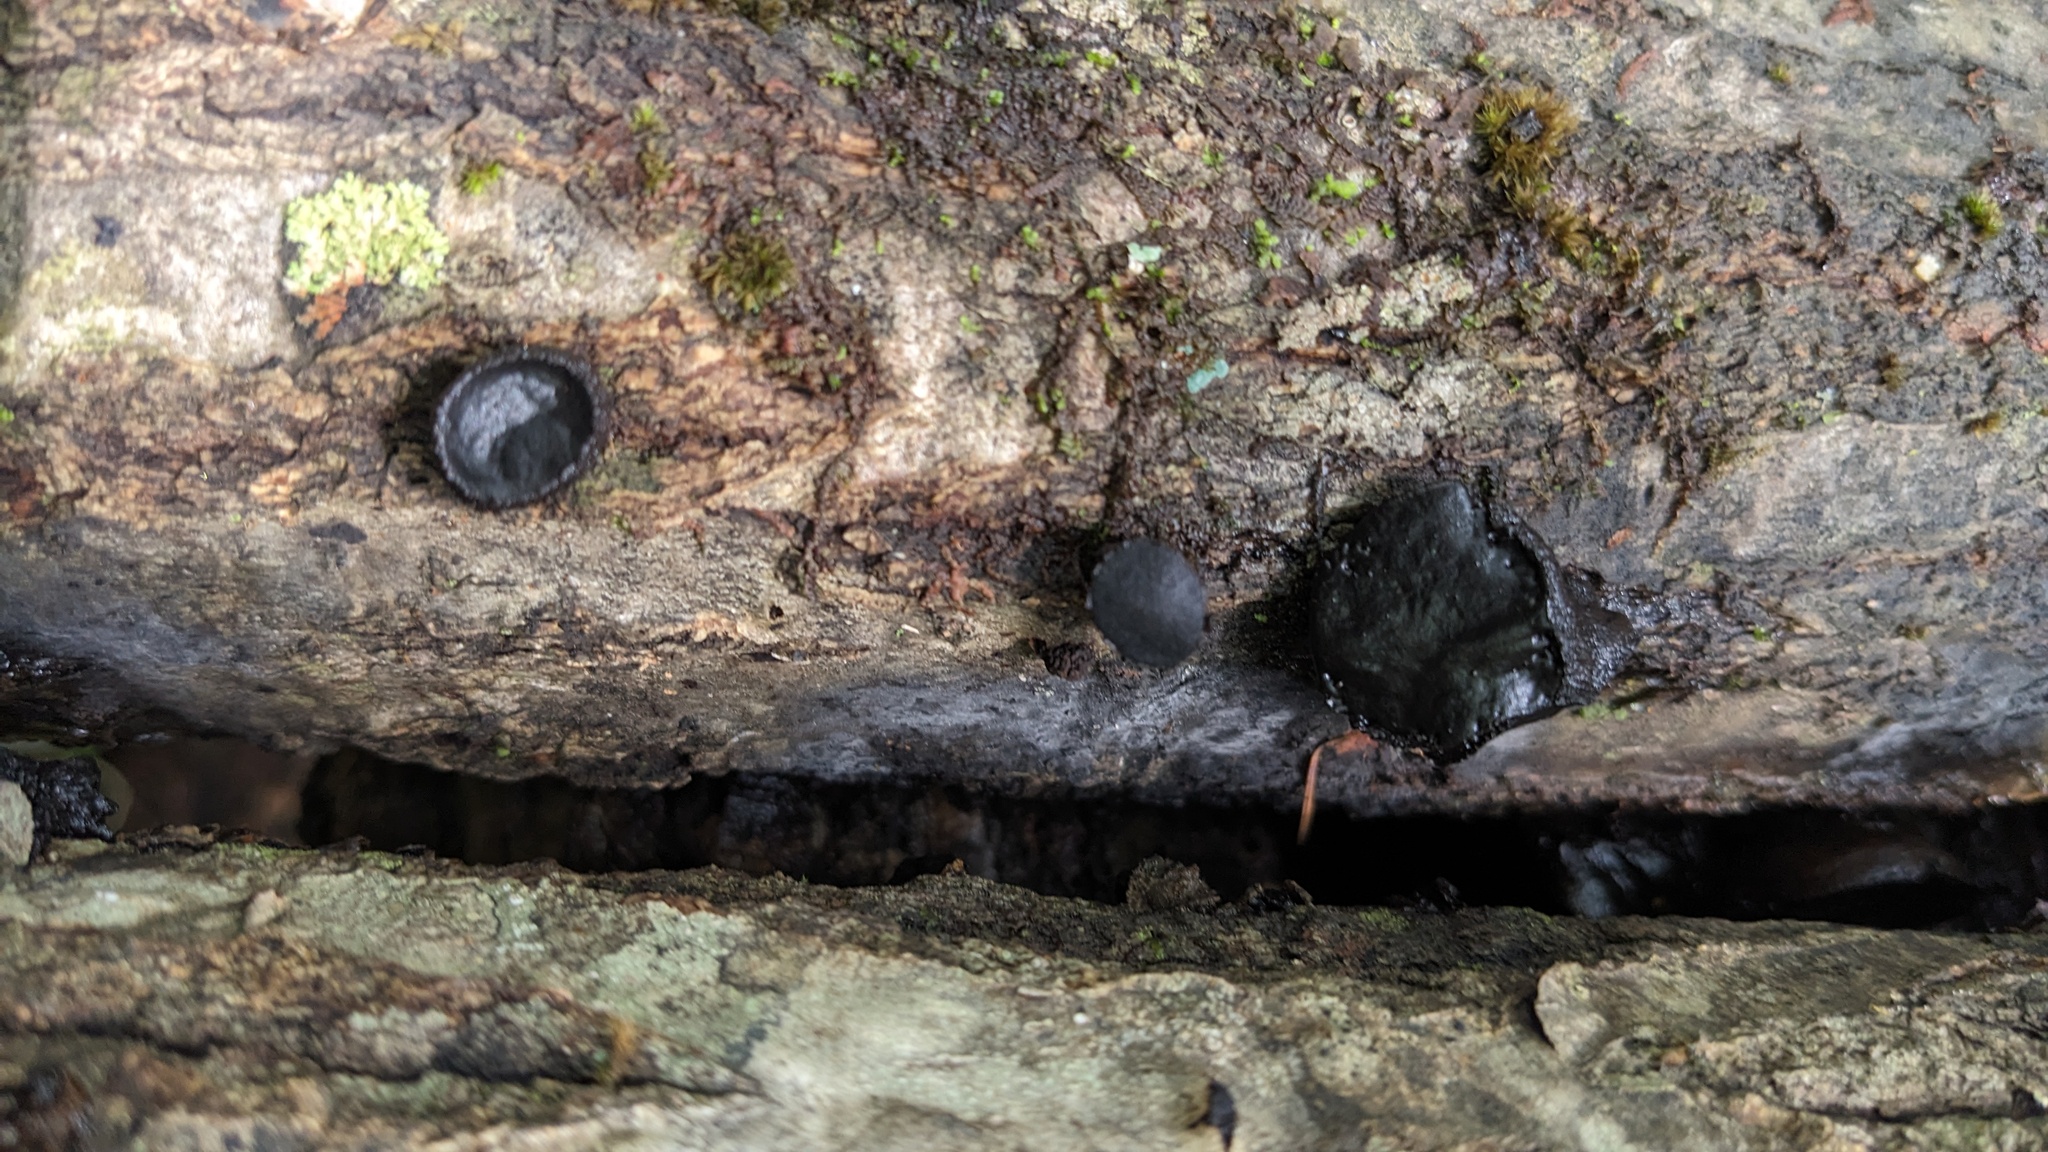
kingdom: Fungi
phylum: Ascomycota
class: Leotiomycetes
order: Phacidiales
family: Phacidiaceae
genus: Bulgaria
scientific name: Bulgaria inquinans
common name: Black bulgar
